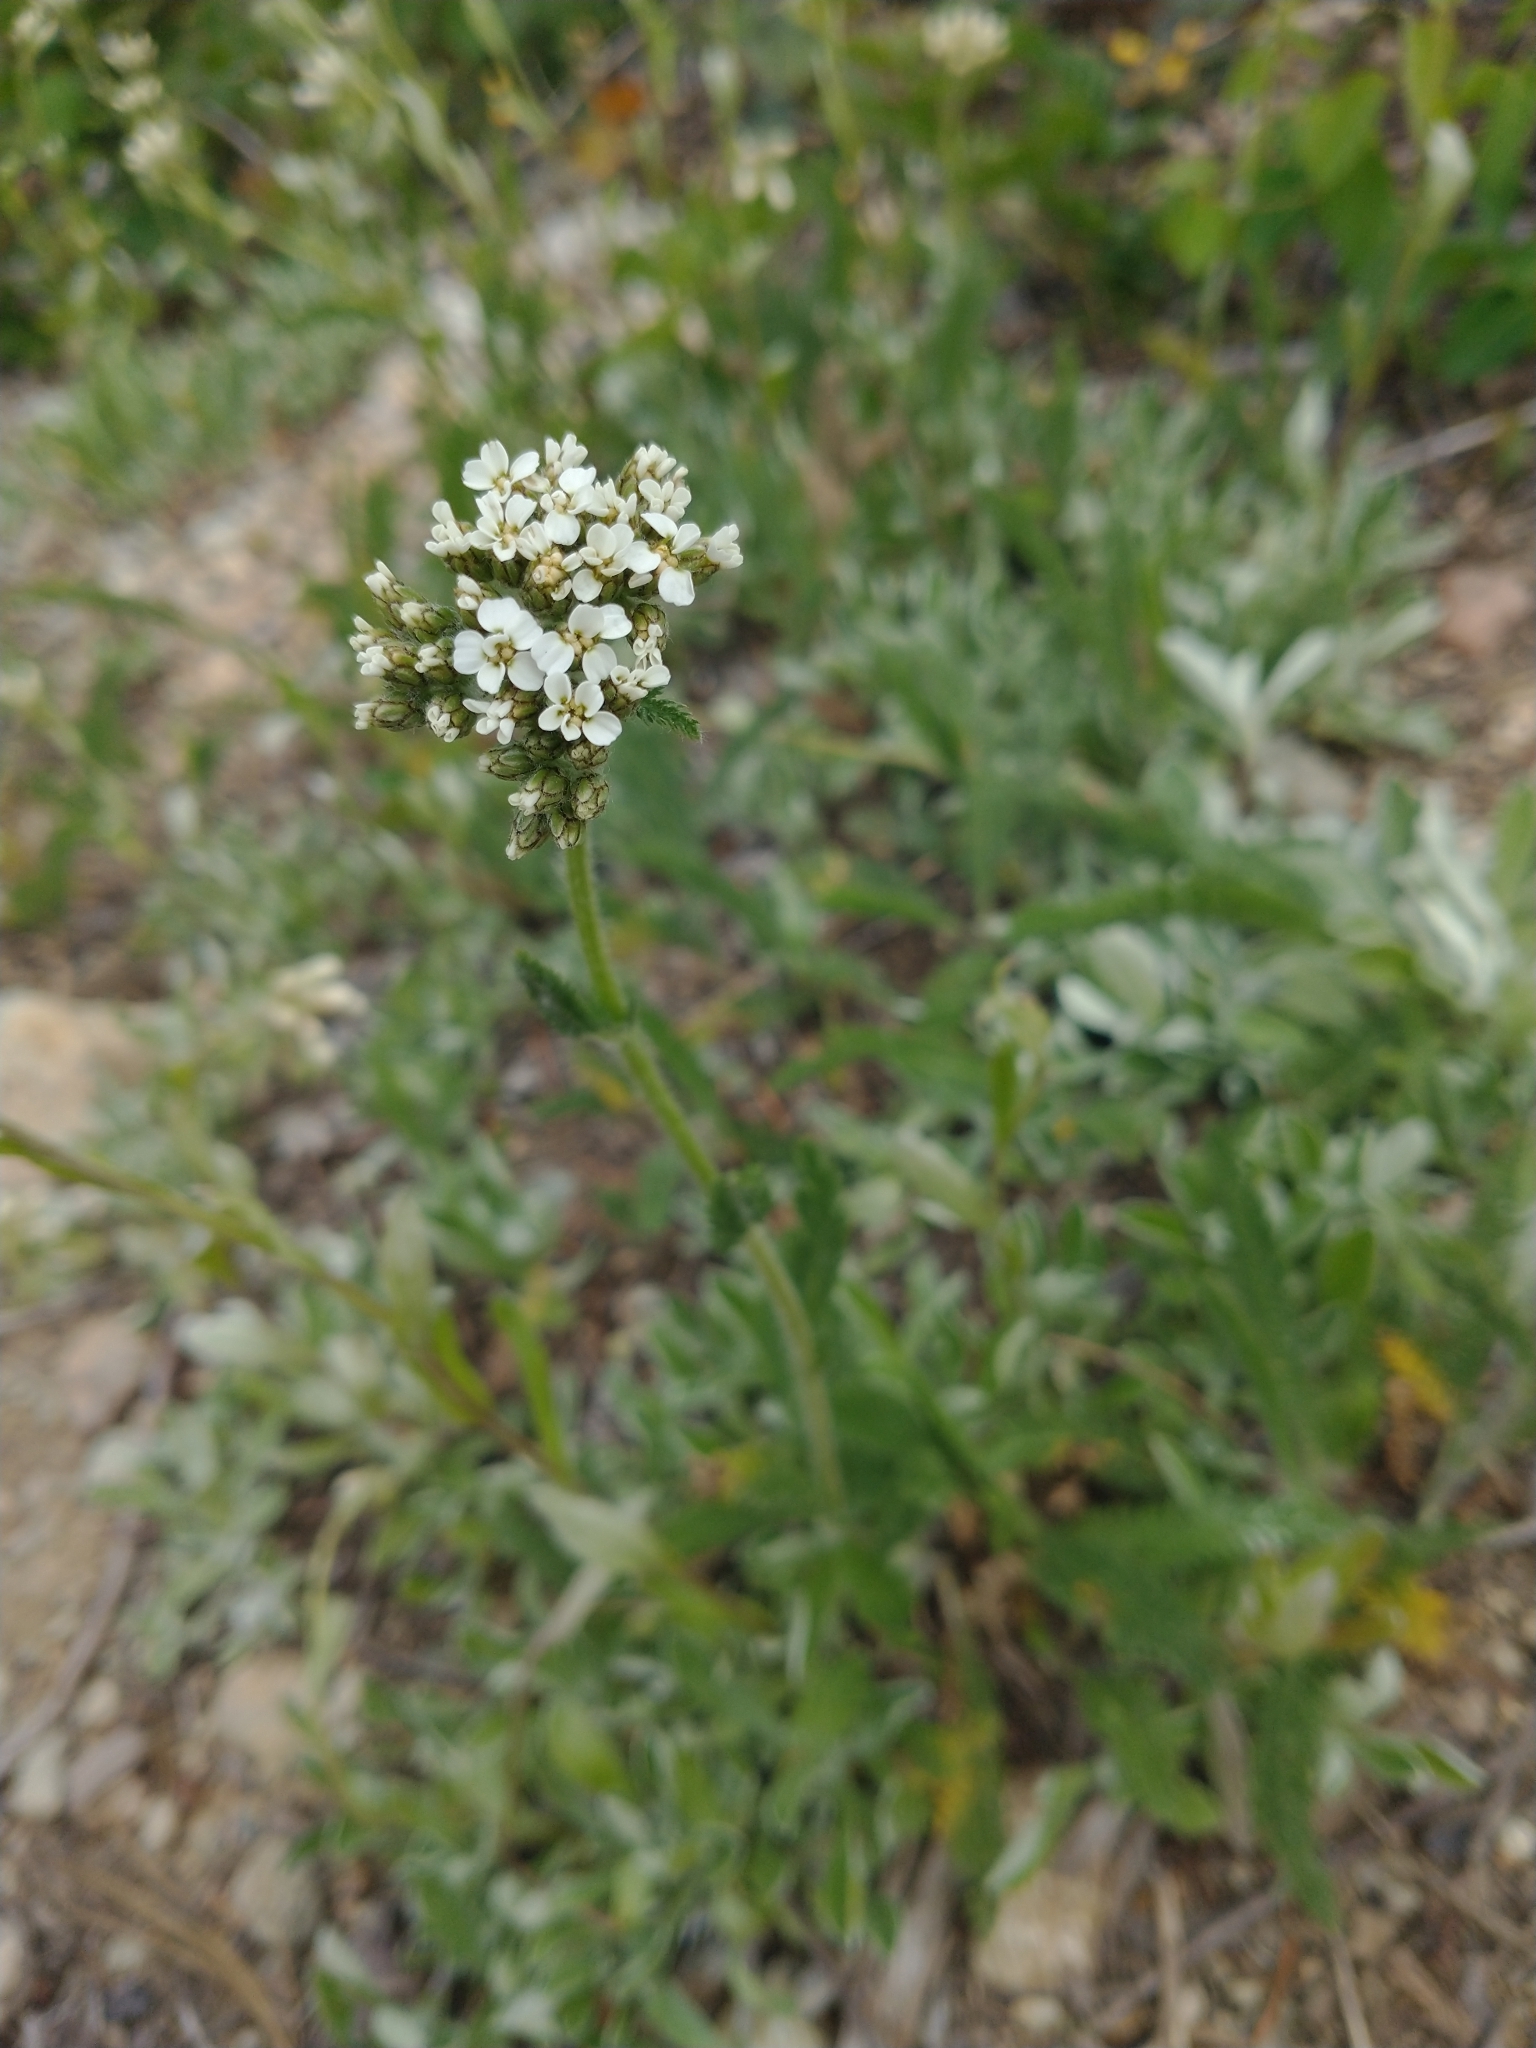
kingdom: Plantae
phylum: Tracheophyta
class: Magnoliopsida
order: Asterales
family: Asteraceae
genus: Achillea
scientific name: Achillea millefolium
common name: Yarrow
